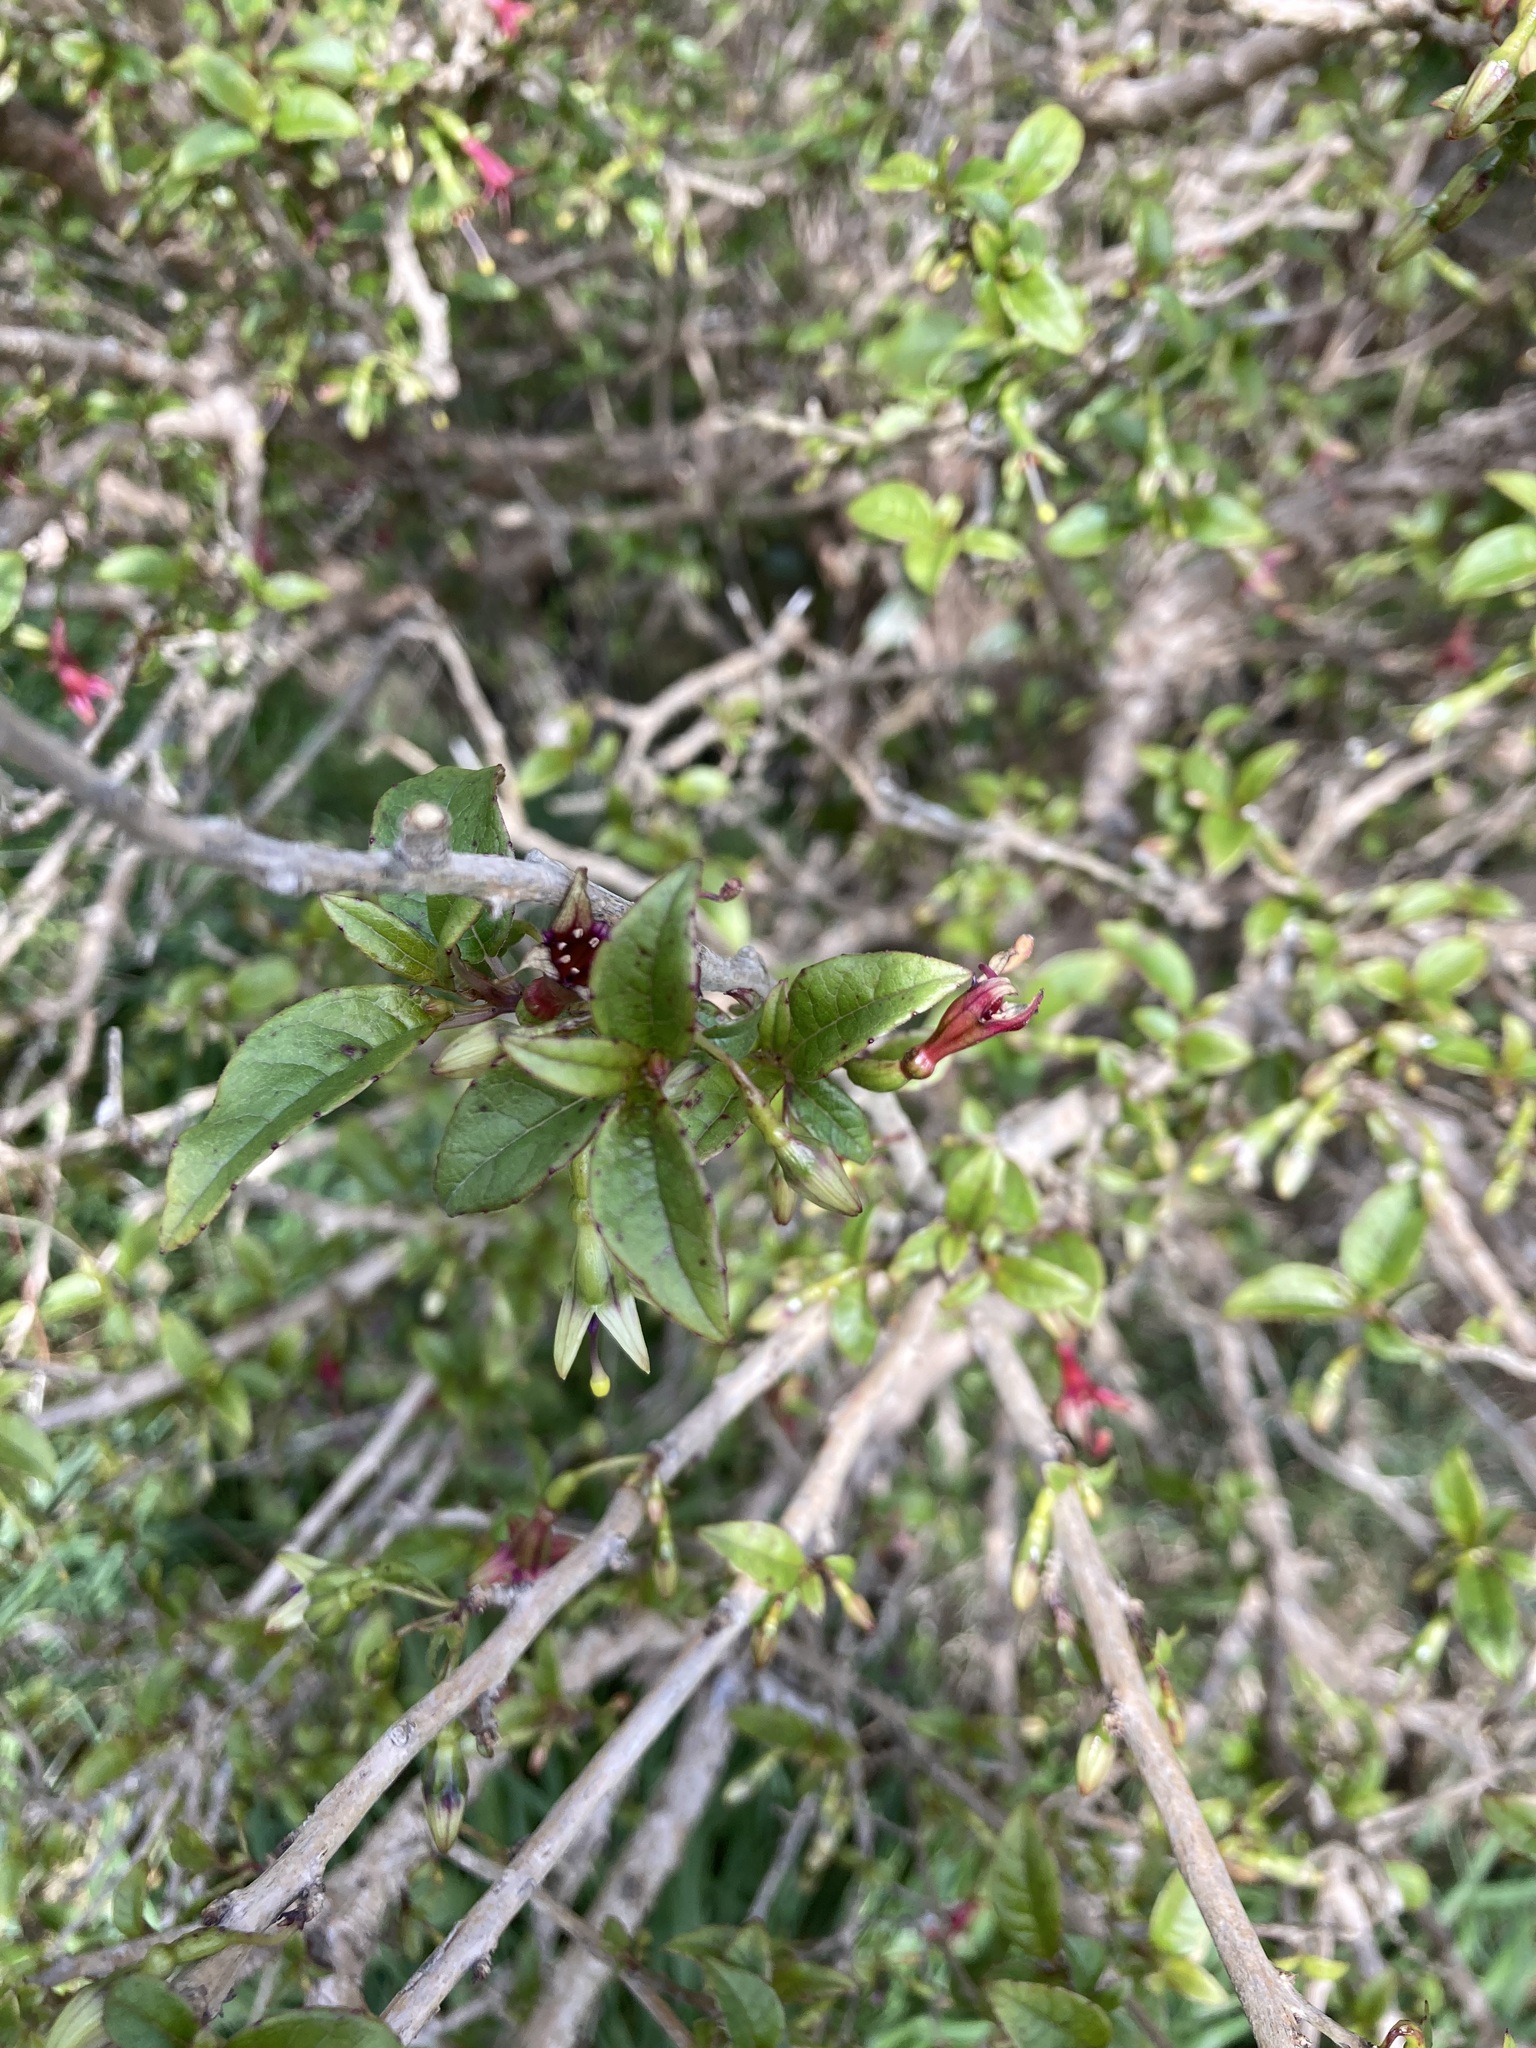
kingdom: Plantae
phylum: Tracheophyta
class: Magnoliopsida
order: Myrtales
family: Onagraceae
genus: Fuchsia
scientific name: Fuchsia excorticata
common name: Tree fuchsia
